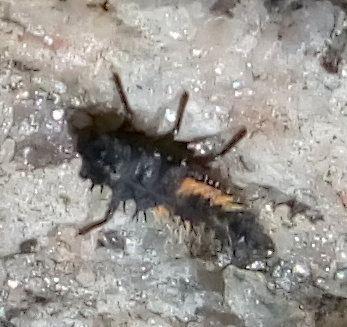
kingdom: Animalia
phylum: Arthropoda
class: Insecta
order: Coleoptera
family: Coccinellidae
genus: Harmonia
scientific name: Harmonia axyridis
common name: Harlequin ladybird
